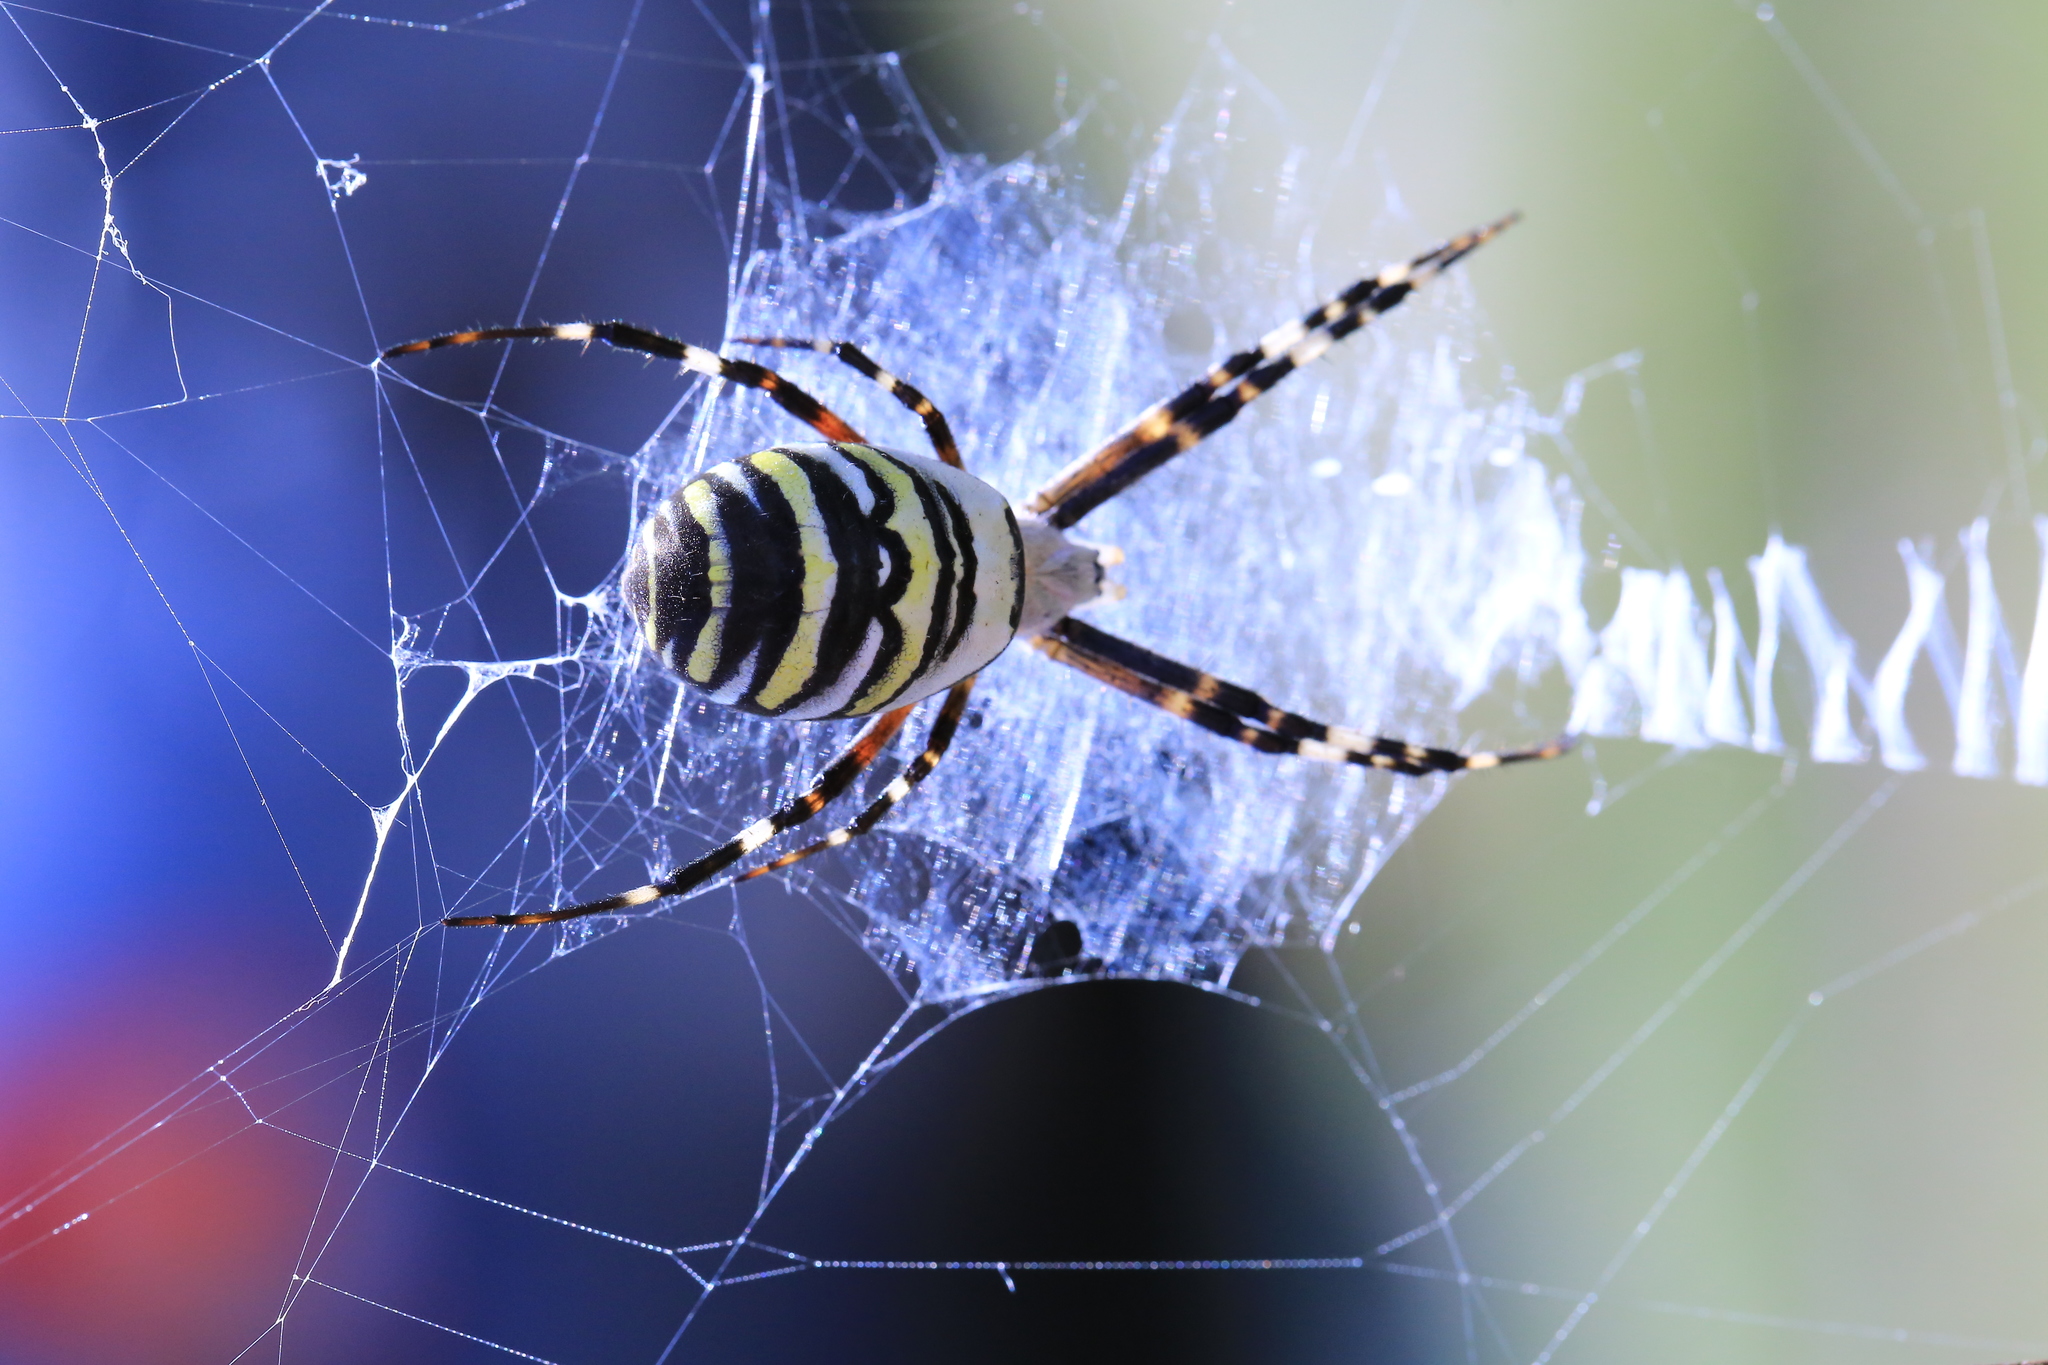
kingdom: Animalia
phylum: Arthropoda
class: Arachnida
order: Araneae
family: Araneidae
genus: Argiope
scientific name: Argiope bruennichi
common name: Wasp spider
